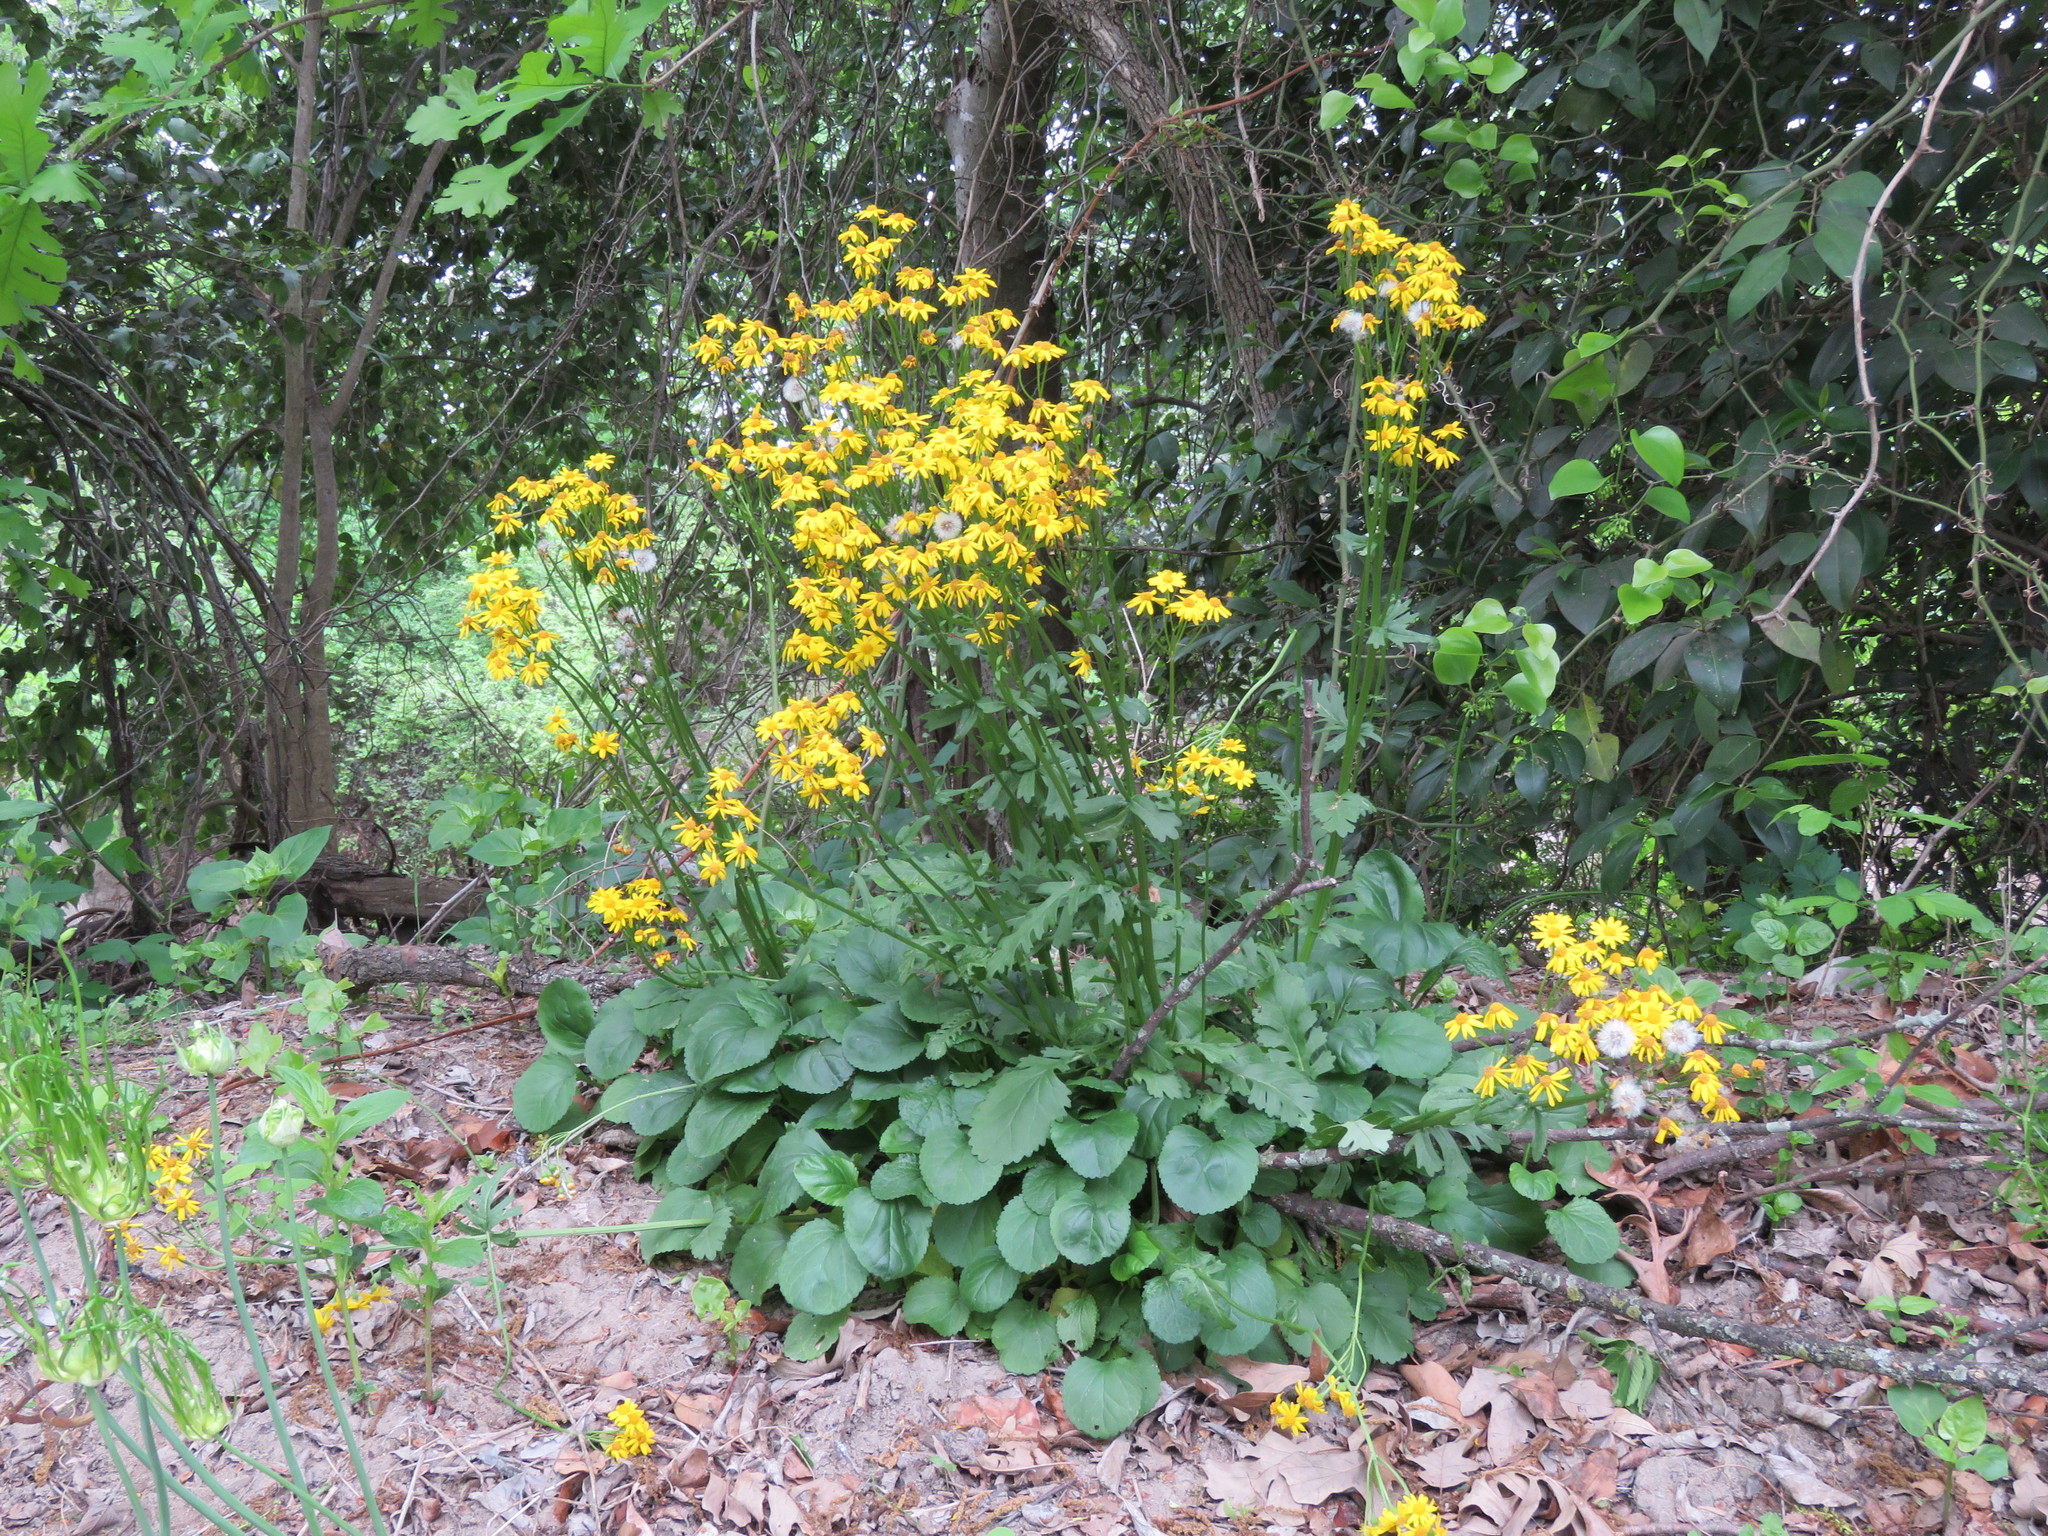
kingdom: Plantae
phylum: Tracheophyta
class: Magnoliopsida
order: Asterales
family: Asteraceae
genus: Packera
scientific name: Packera obovata
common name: Round-leaf ragwort
